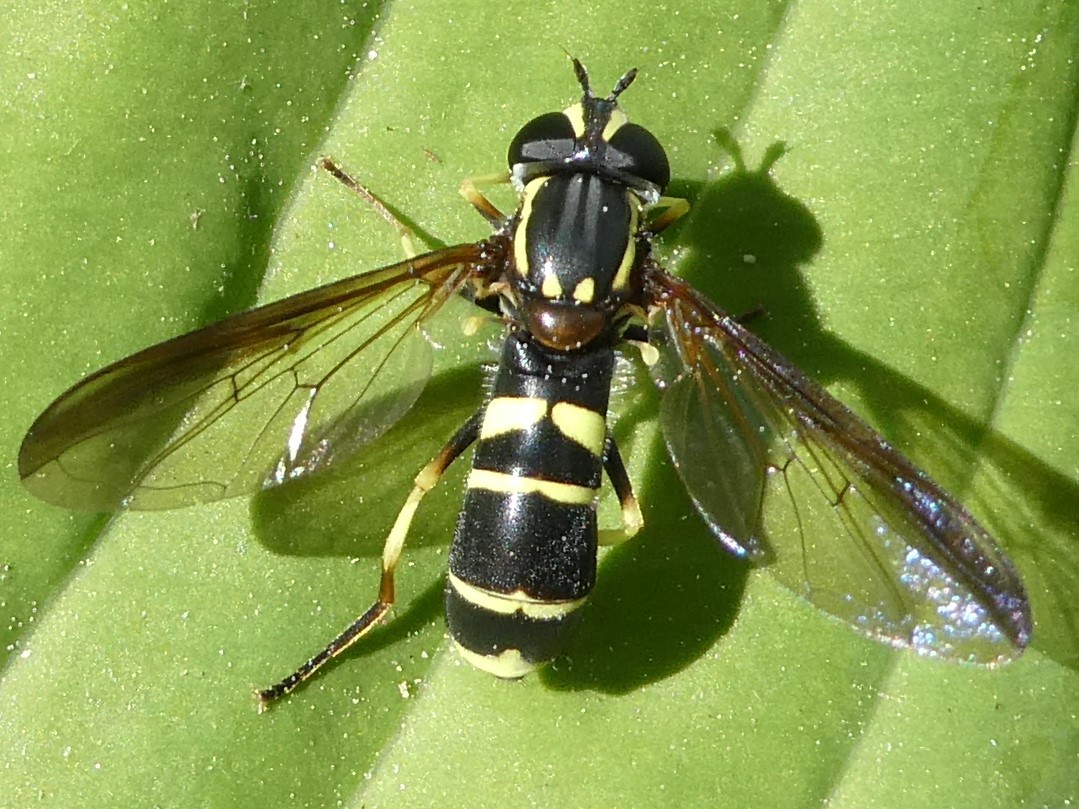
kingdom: Animalia
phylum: Arthropoda
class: Insecta
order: Diptera
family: Syrphidae
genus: Doros
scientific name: Doros aequalis
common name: Canadian potter fly
